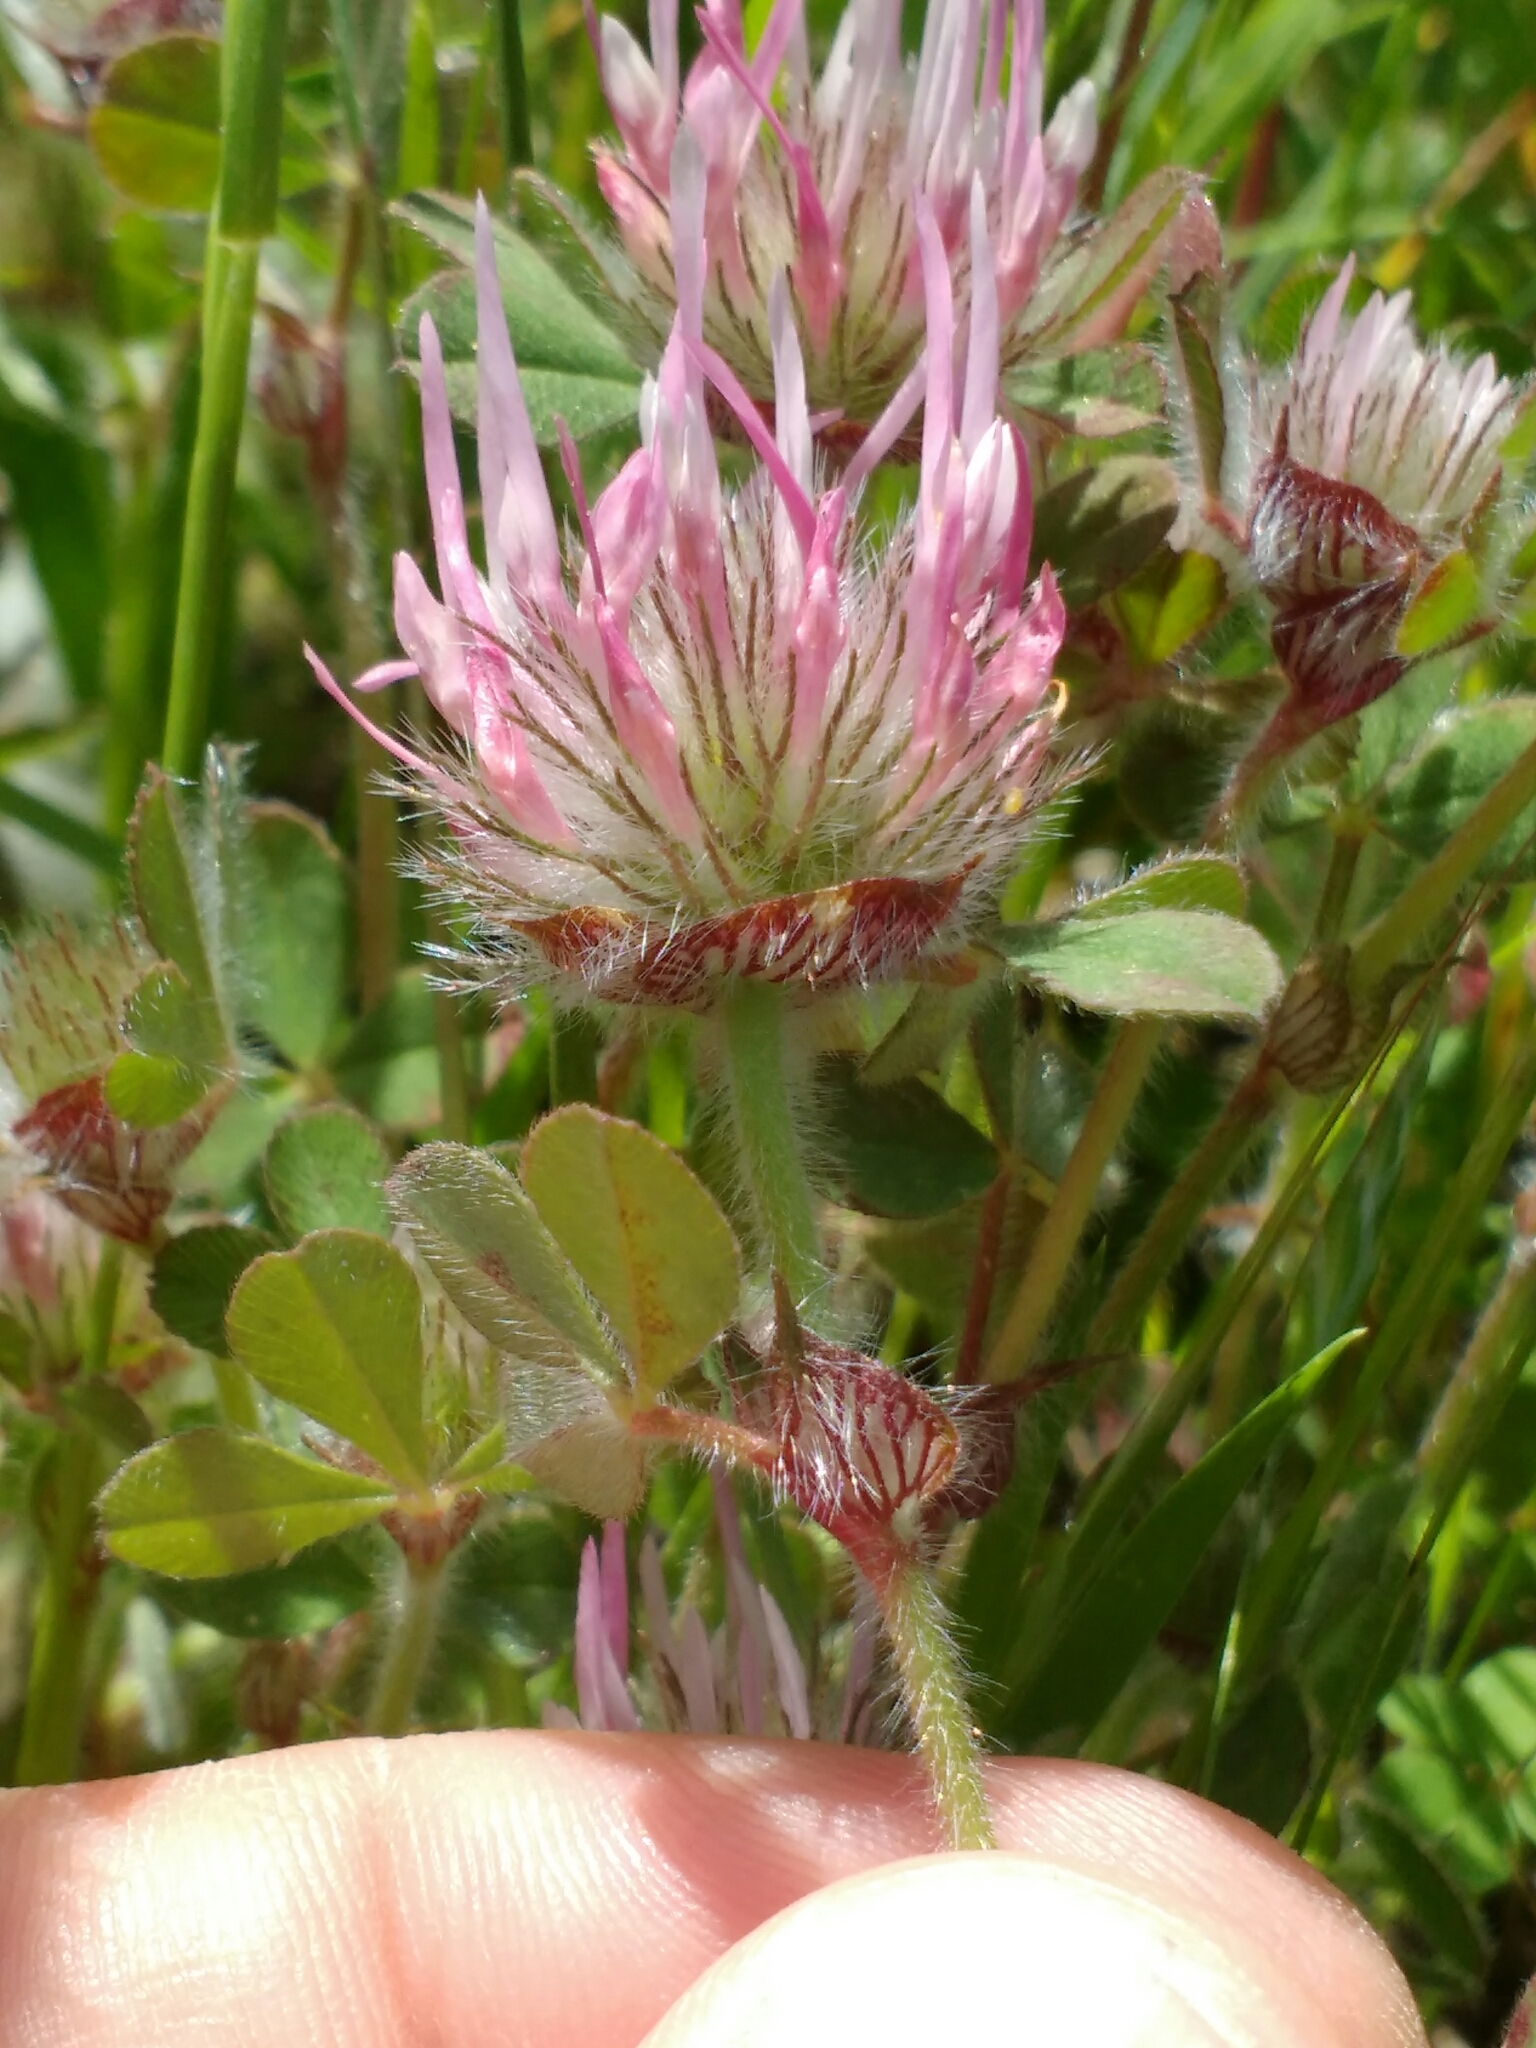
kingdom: Plantae
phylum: Tracheophyta
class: Magnoliopsida
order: Fabales
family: Fabaceae
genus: Trifolium
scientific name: Trifolium hirtum
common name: Rose clover
